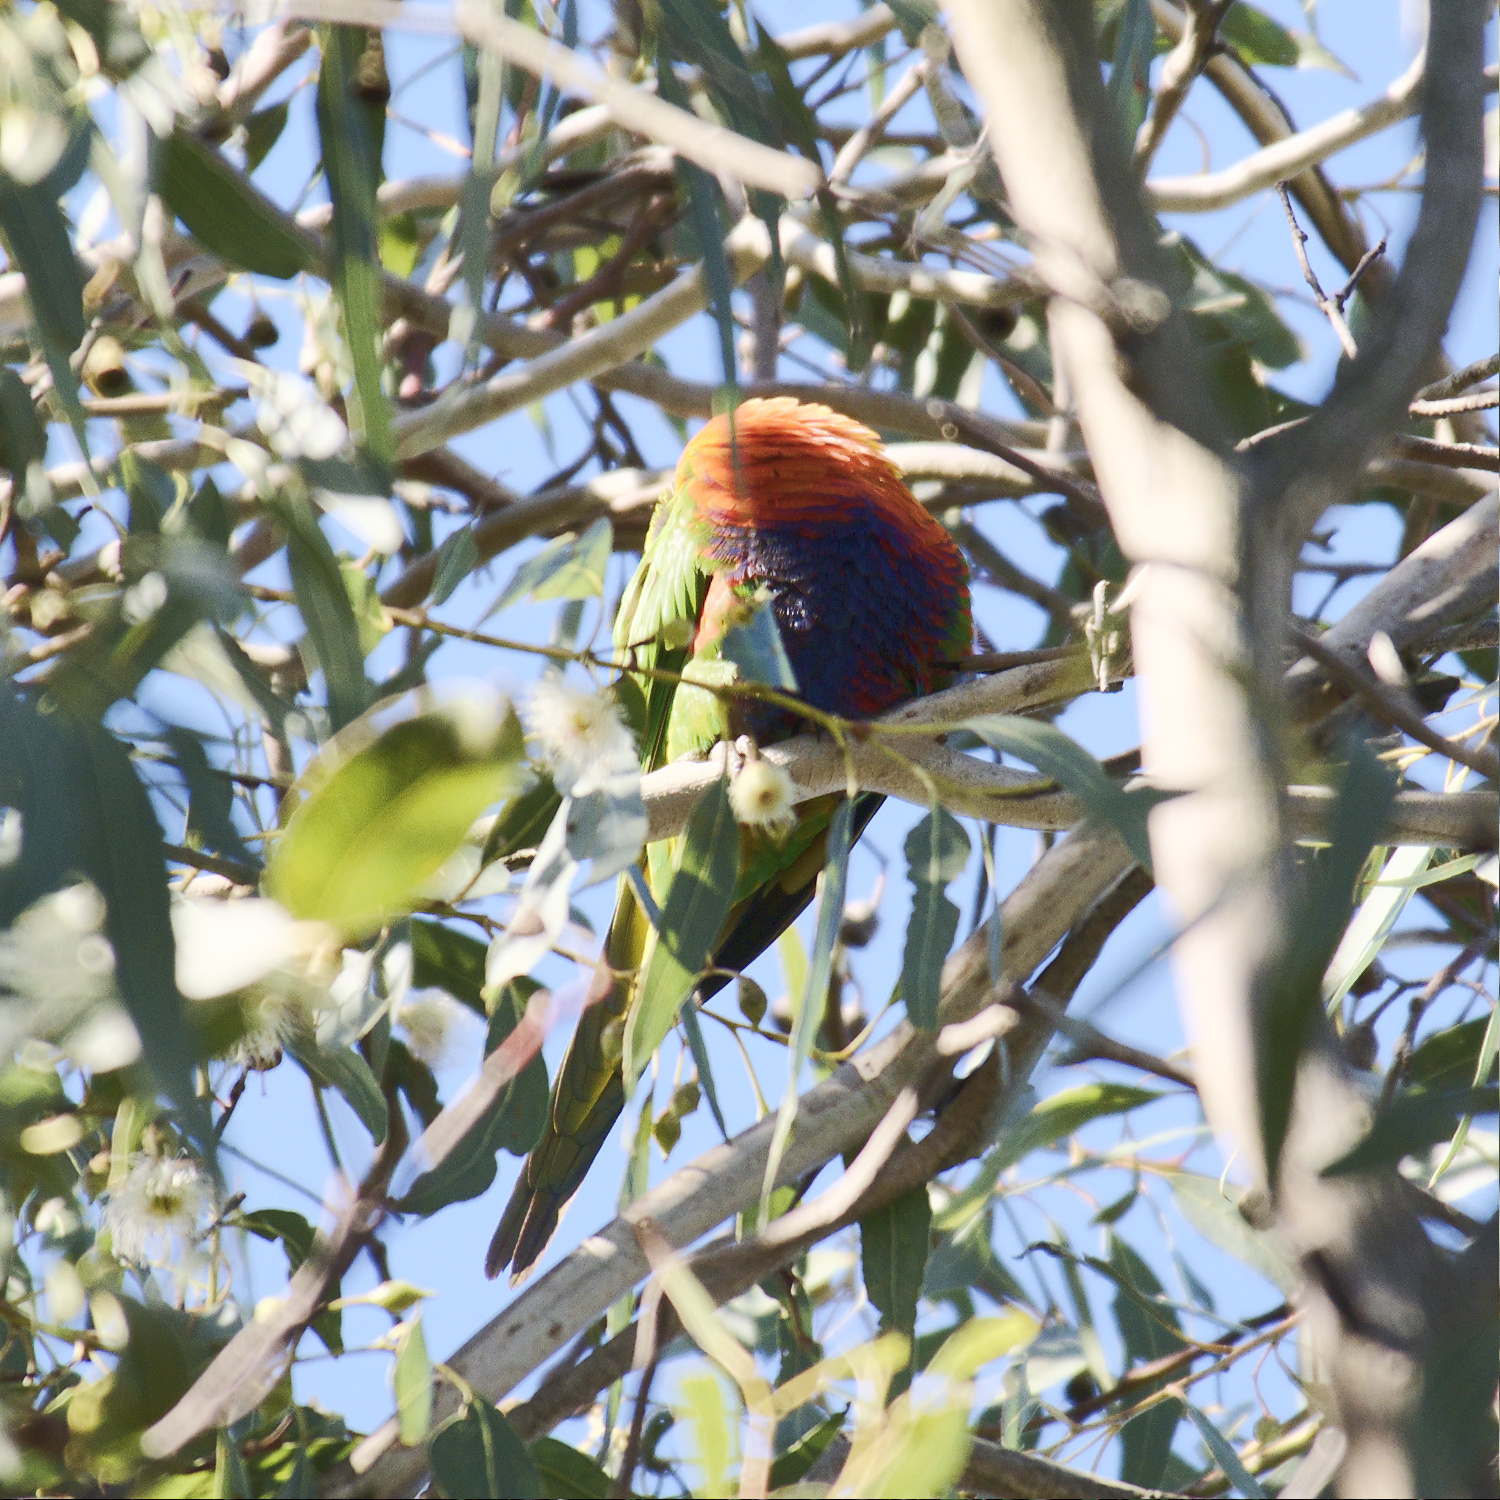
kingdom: Animalia
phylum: Chordata
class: Aves
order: Psittaciformes
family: Psittacidae
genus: Trichoglossus
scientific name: Trichoglossus haematodus
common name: Coconut lorikeet
